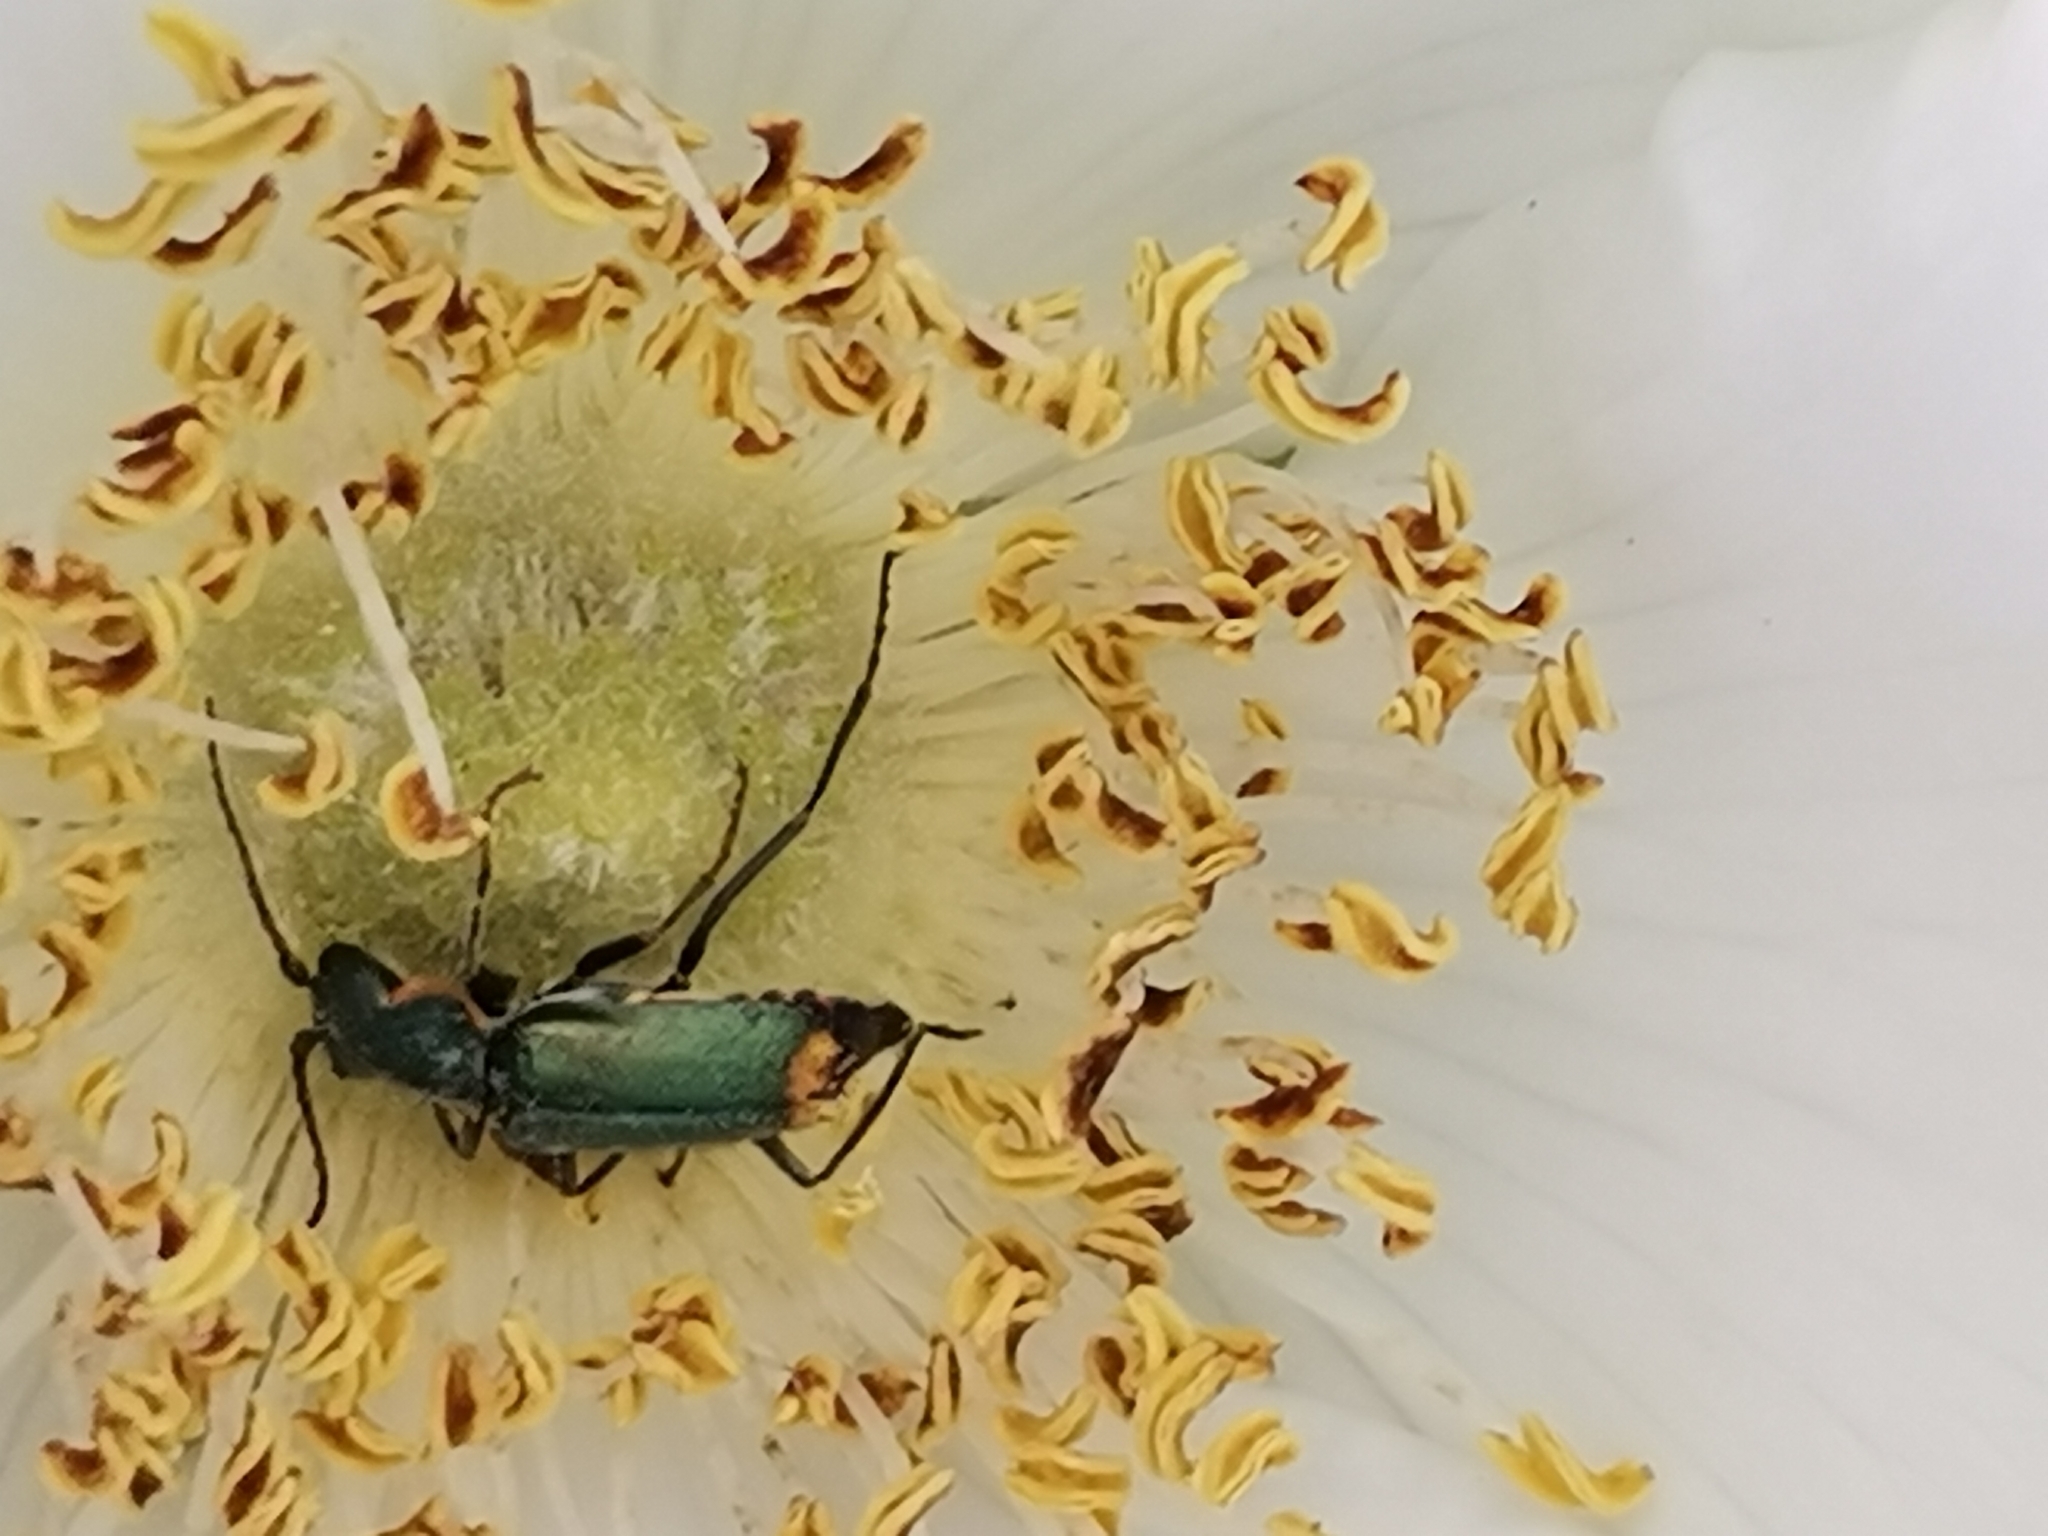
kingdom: Animalia
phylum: Arthropoda
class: Insecta
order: Coleoptera
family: Malachiidae
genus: Clanoptilus
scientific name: Clanoptilus marginellus
